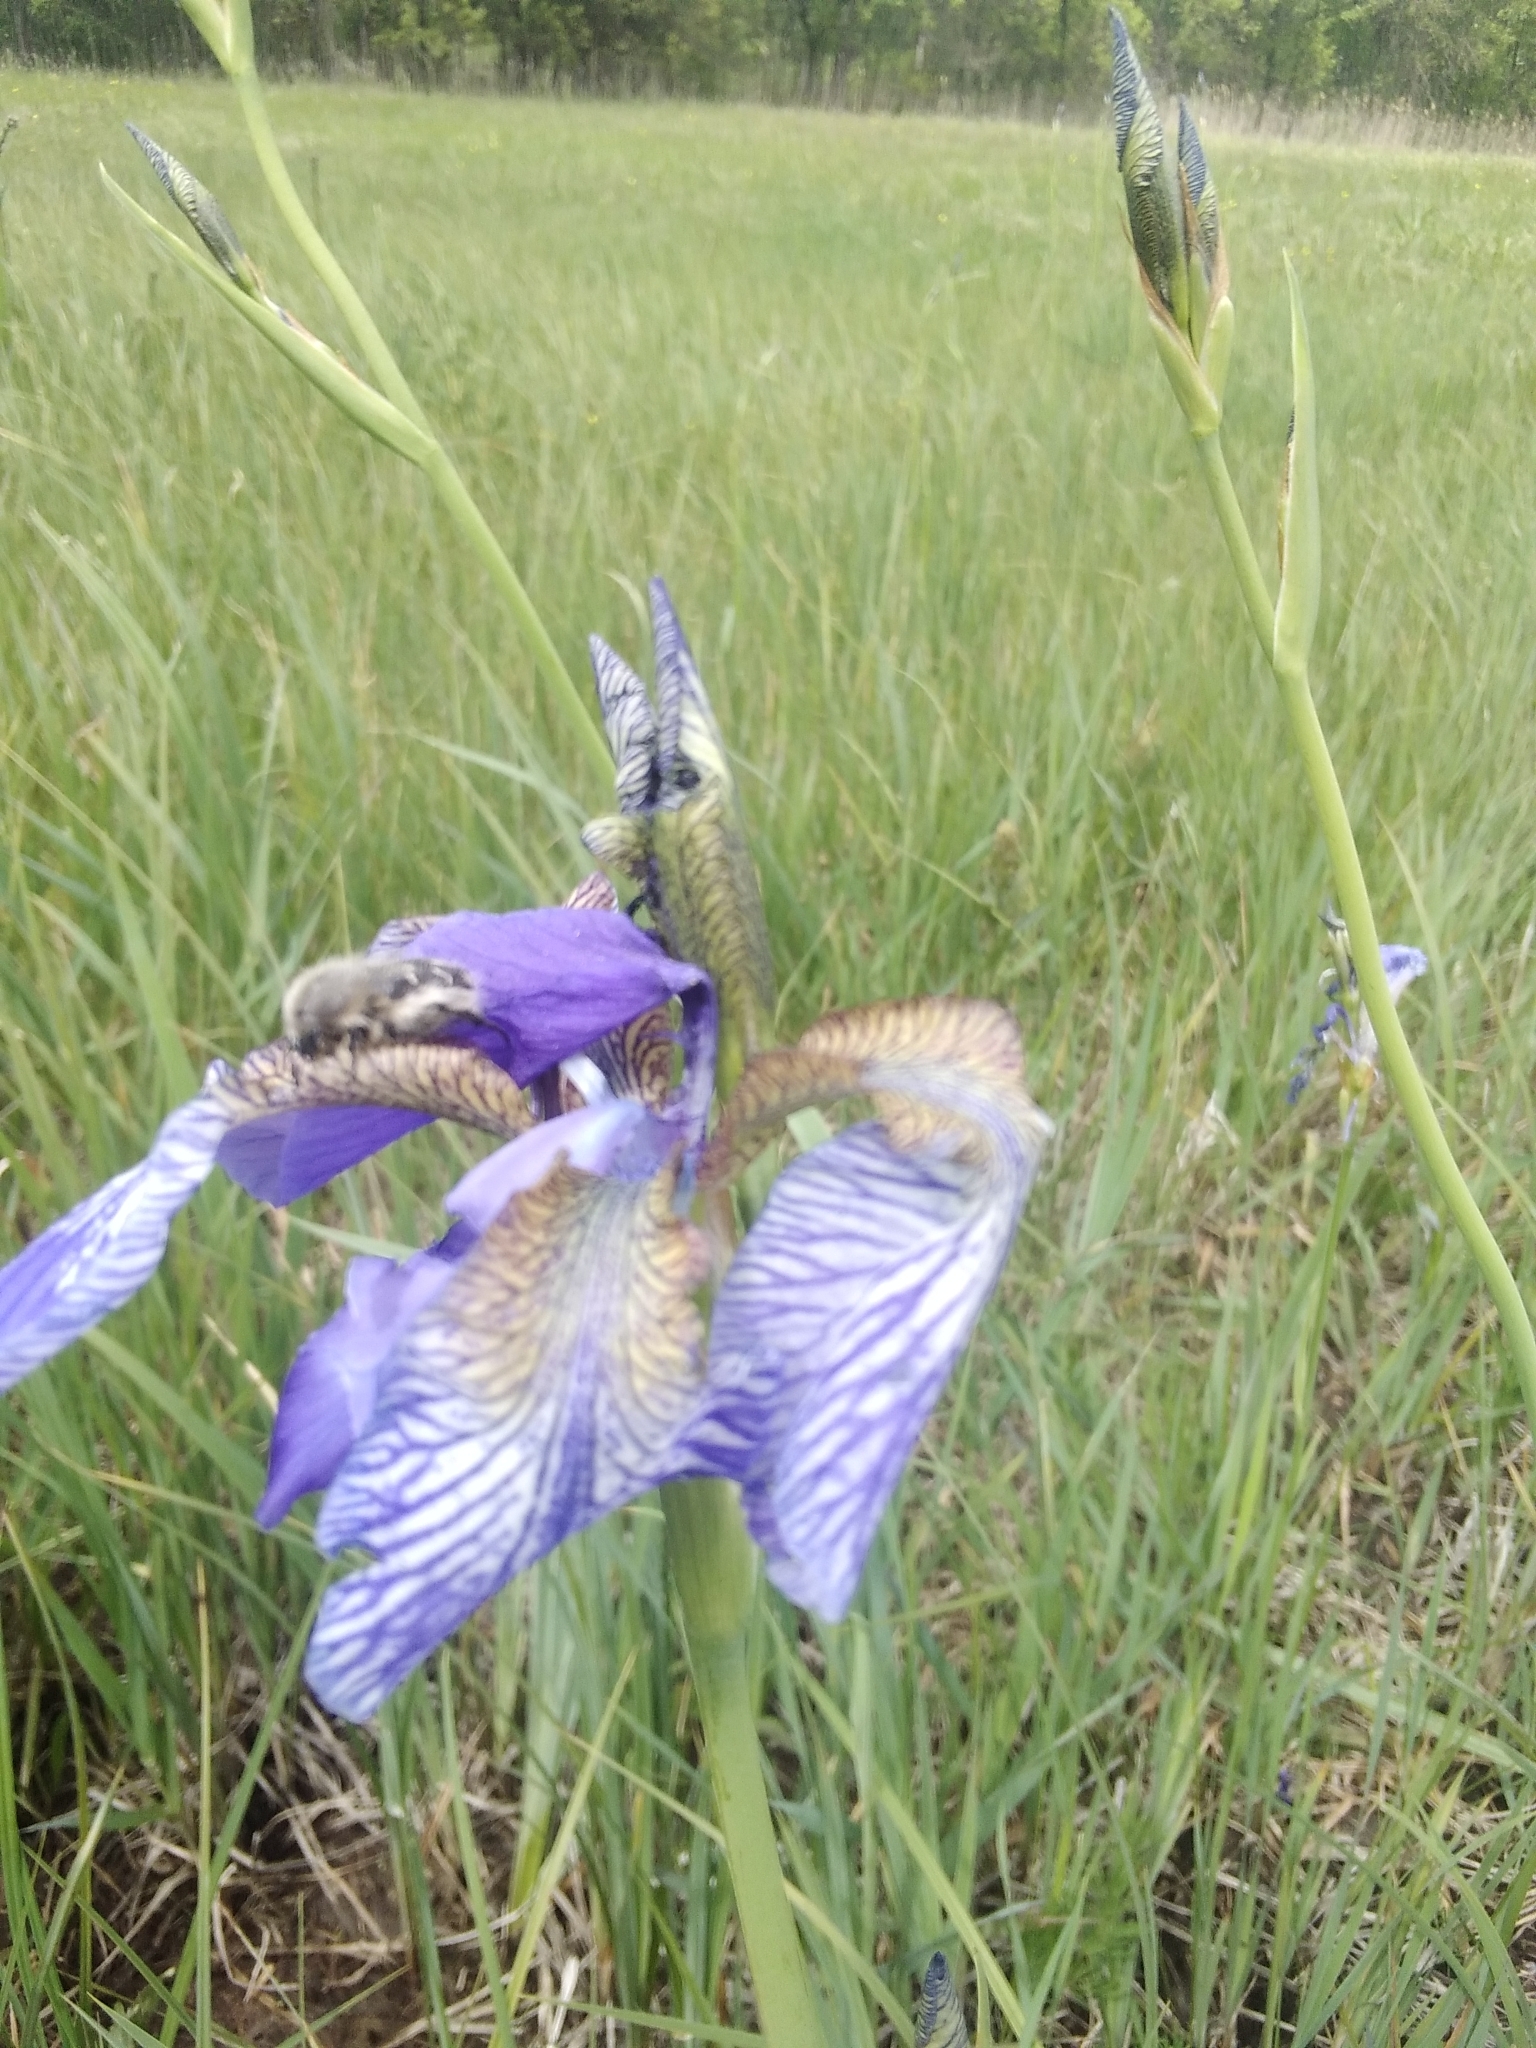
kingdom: Plantae
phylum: Tracheophyta
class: Liliopsida
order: Asparagales
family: Iridaceae
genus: Iris
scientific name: Iris sibirica
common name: Siberian iris
